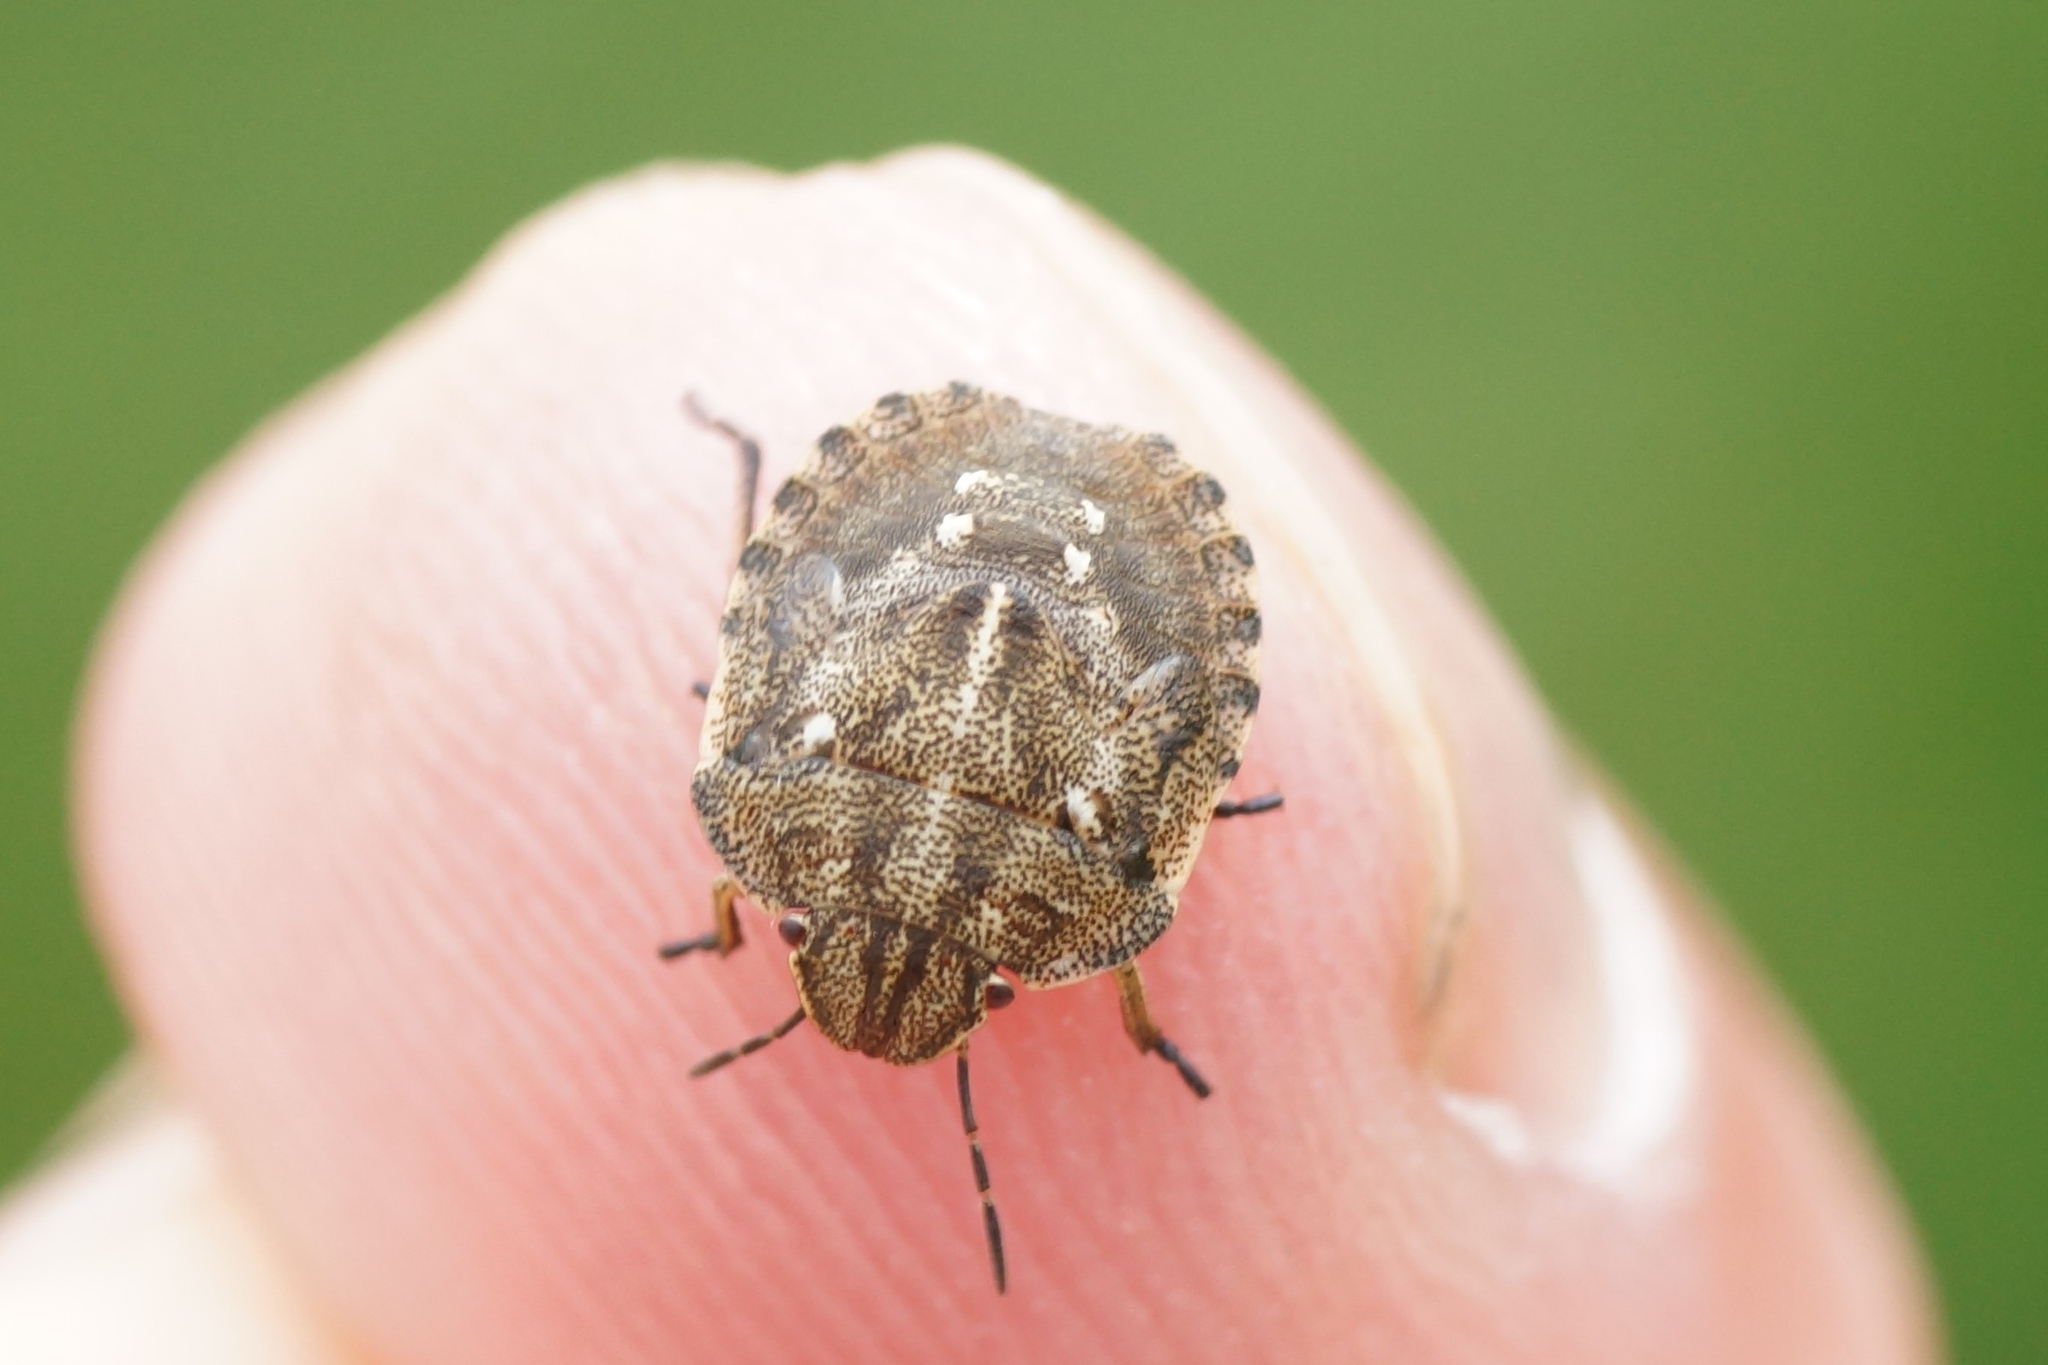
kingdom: Animalia
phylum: Arthropoda
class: Insecta
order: Hemiptera
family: Scutelleridae
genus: Eurygaster
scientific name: Eurygaster testudinaria
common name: Tortoise bug
